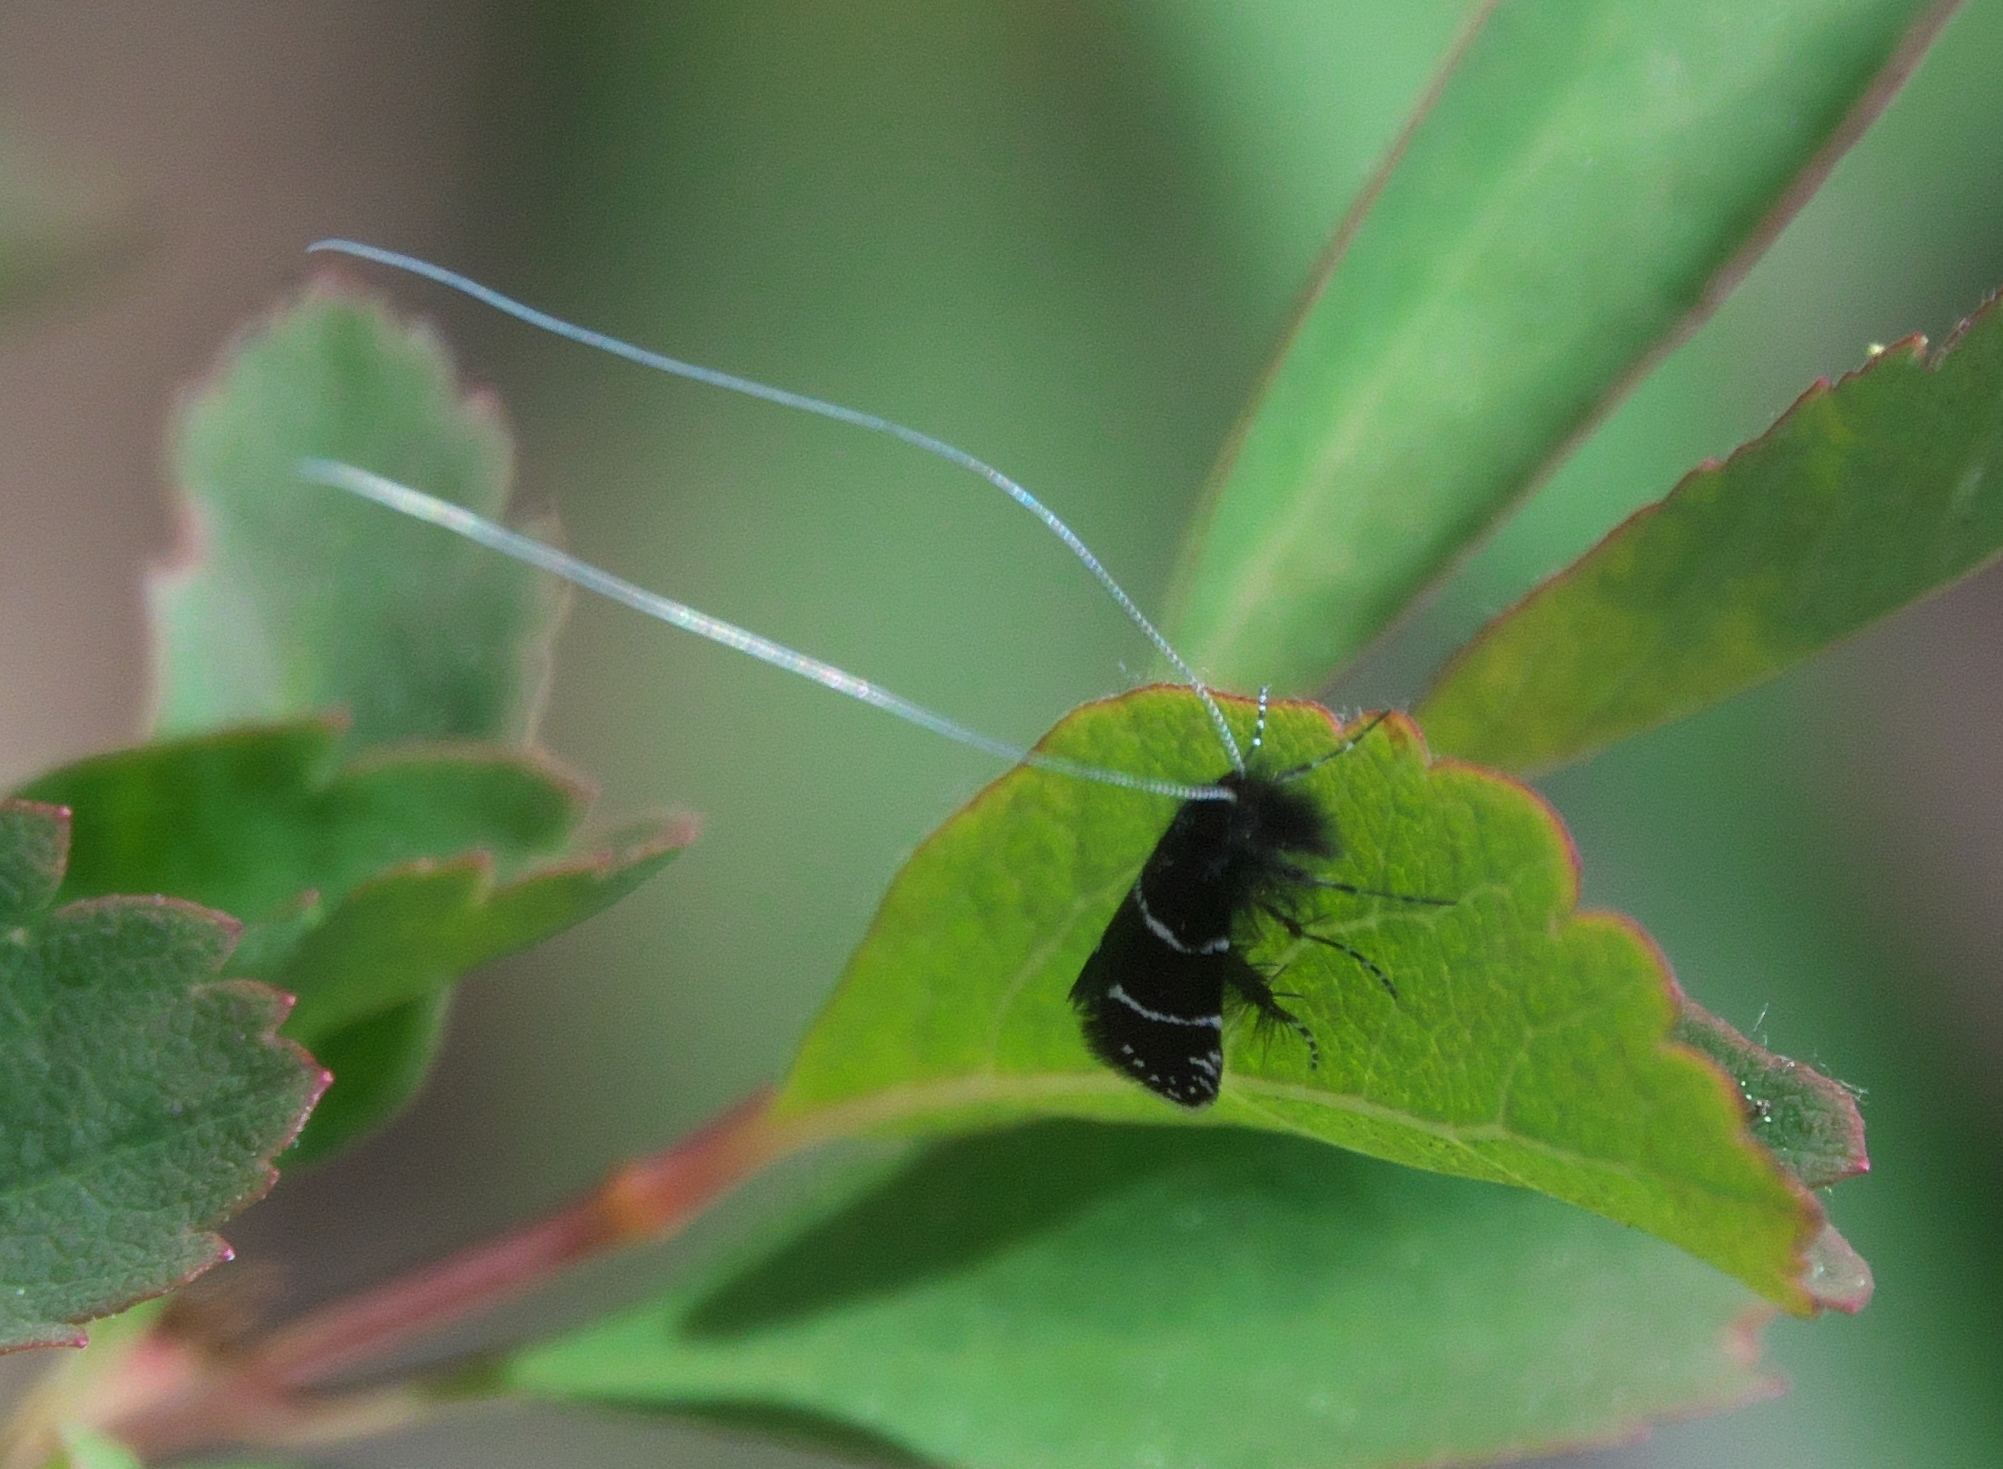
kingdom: Animalia
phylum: Arthropoda
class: Insecta
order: Lepidoptera
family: Adelidae
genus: Adela
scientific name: Adela septentrionella
